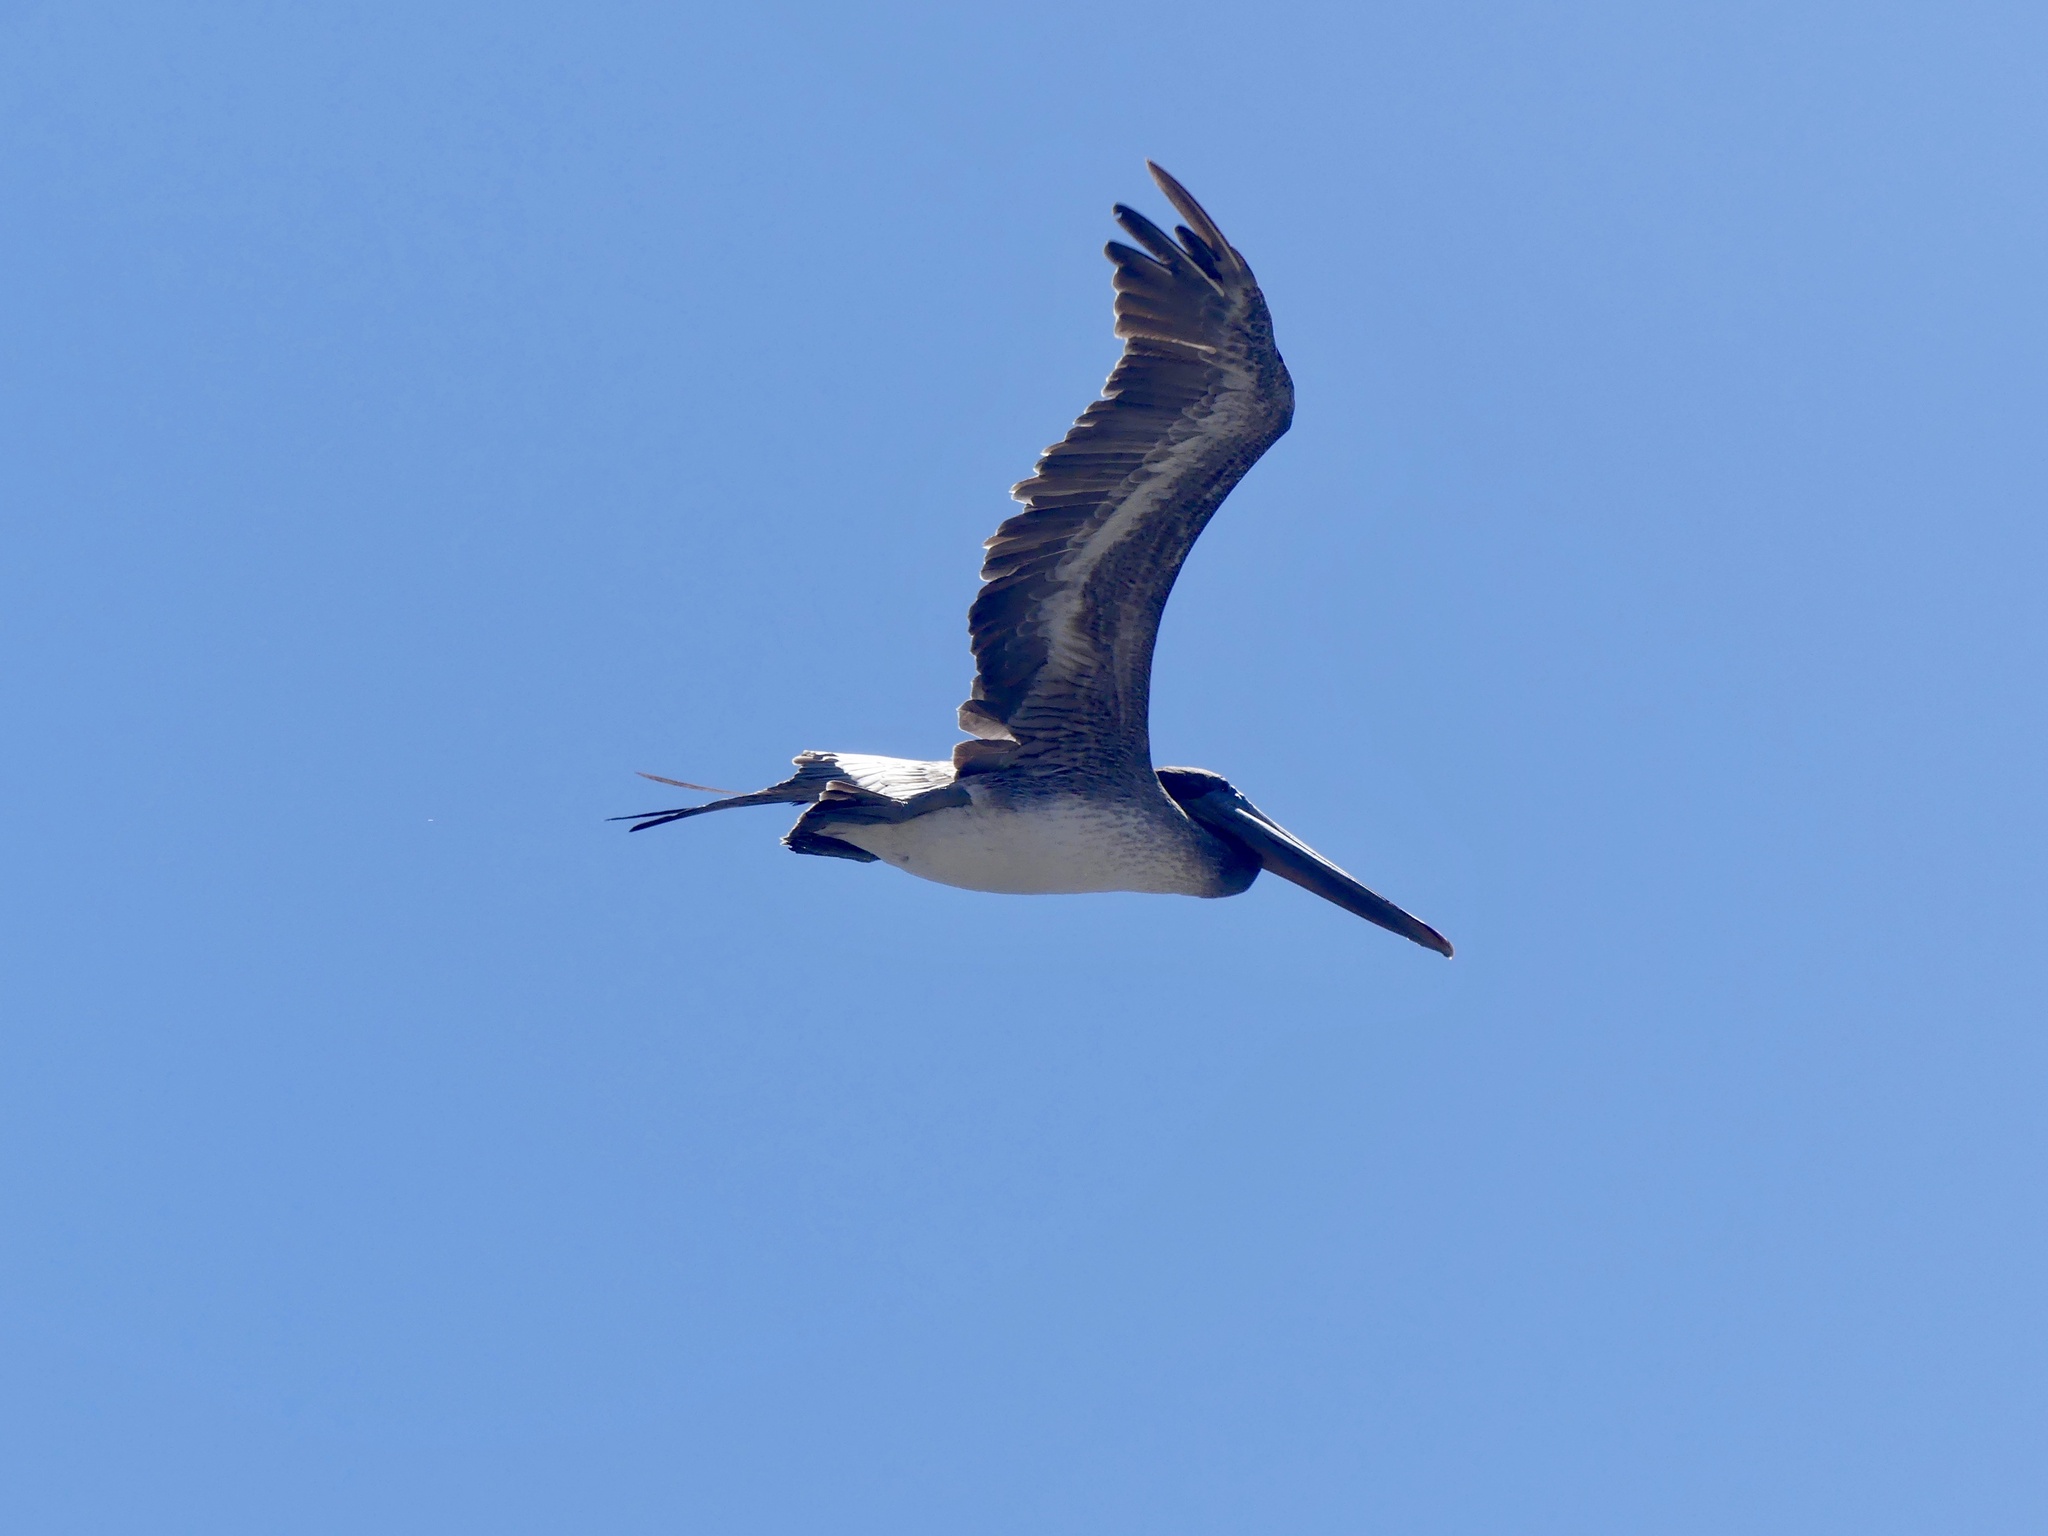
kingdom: Animalia
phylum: Chordata
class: Aves
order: Pelecaniformes
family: Pelecanidae
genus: Pelecanus
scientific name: Pelecanus occidentalis
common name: Brown pelican
